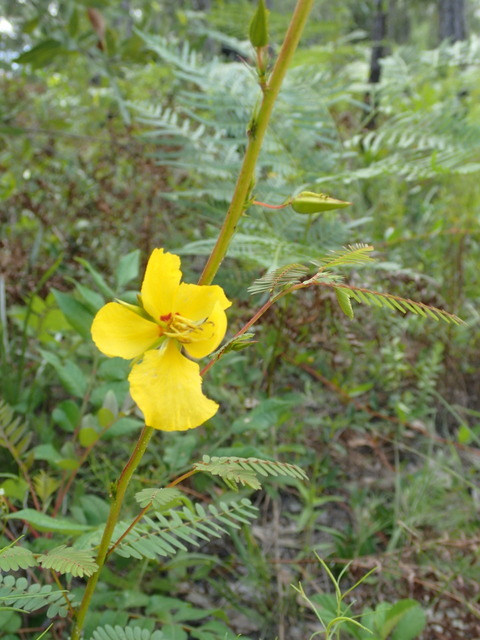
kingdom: Plantae
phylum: Tracheophyta
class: Magnoliopsida
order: Fabales
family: Fabaceae
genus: Chamaecrista
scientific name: Chamaecrista fasciculata
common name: Golden cassia
